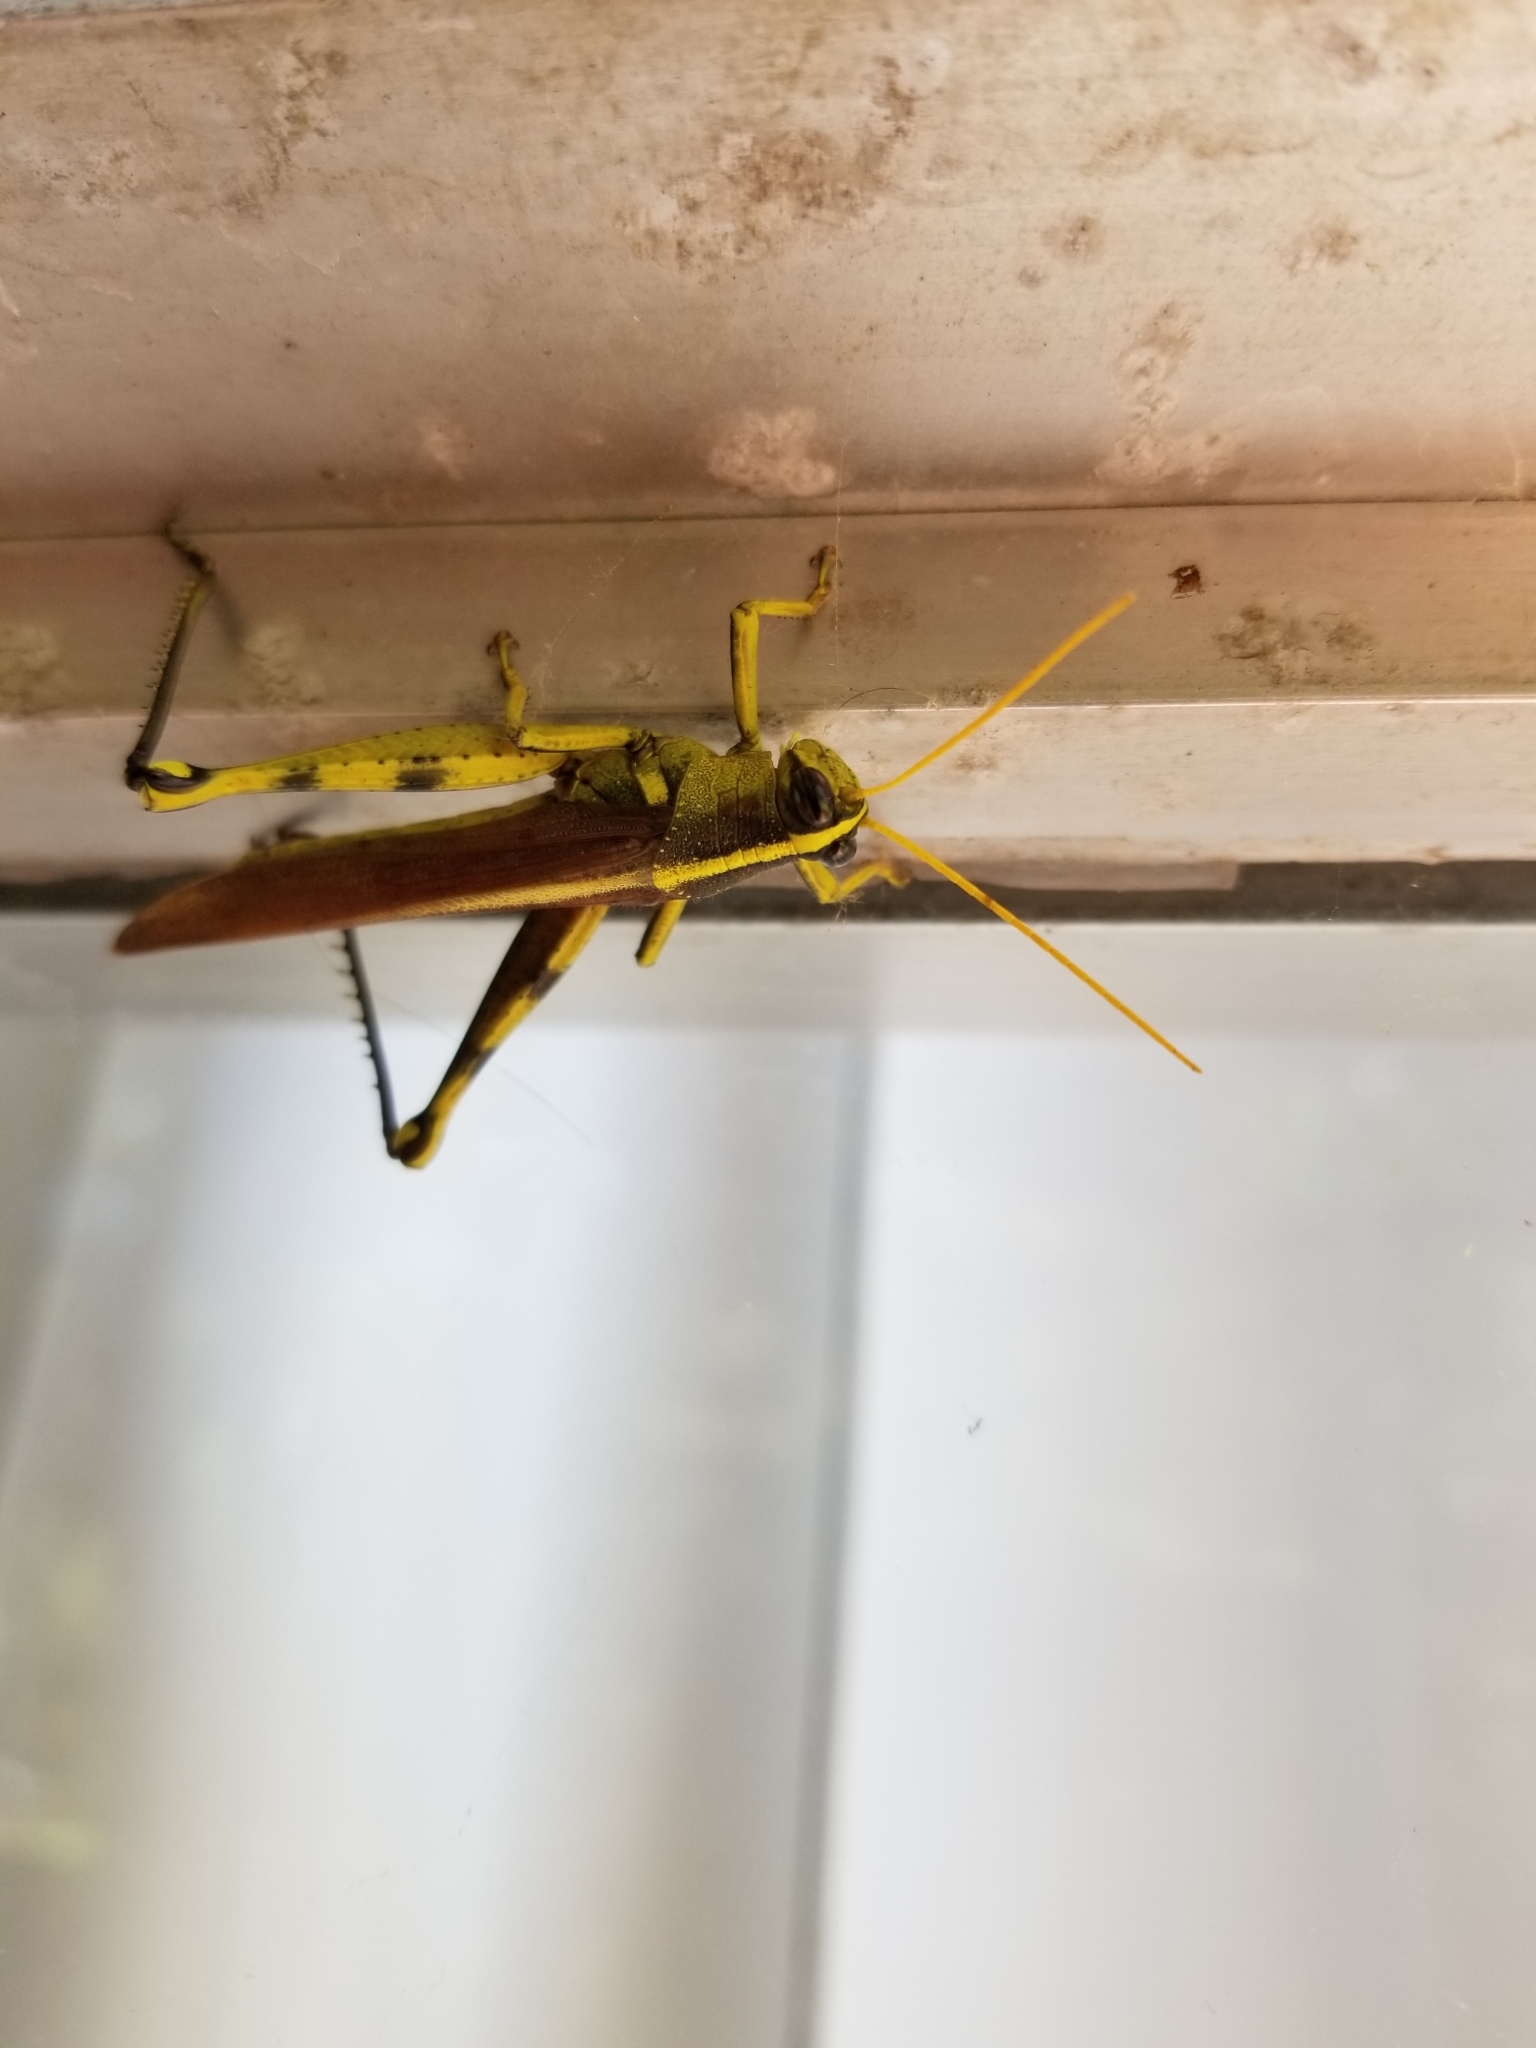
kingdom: Animalia
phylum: Arthropoda
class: Insecta
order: Orthoptera
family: Acrididae
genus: Schistocerca
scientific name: Schistocerca obscura
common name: Obscure bird grasshopper
